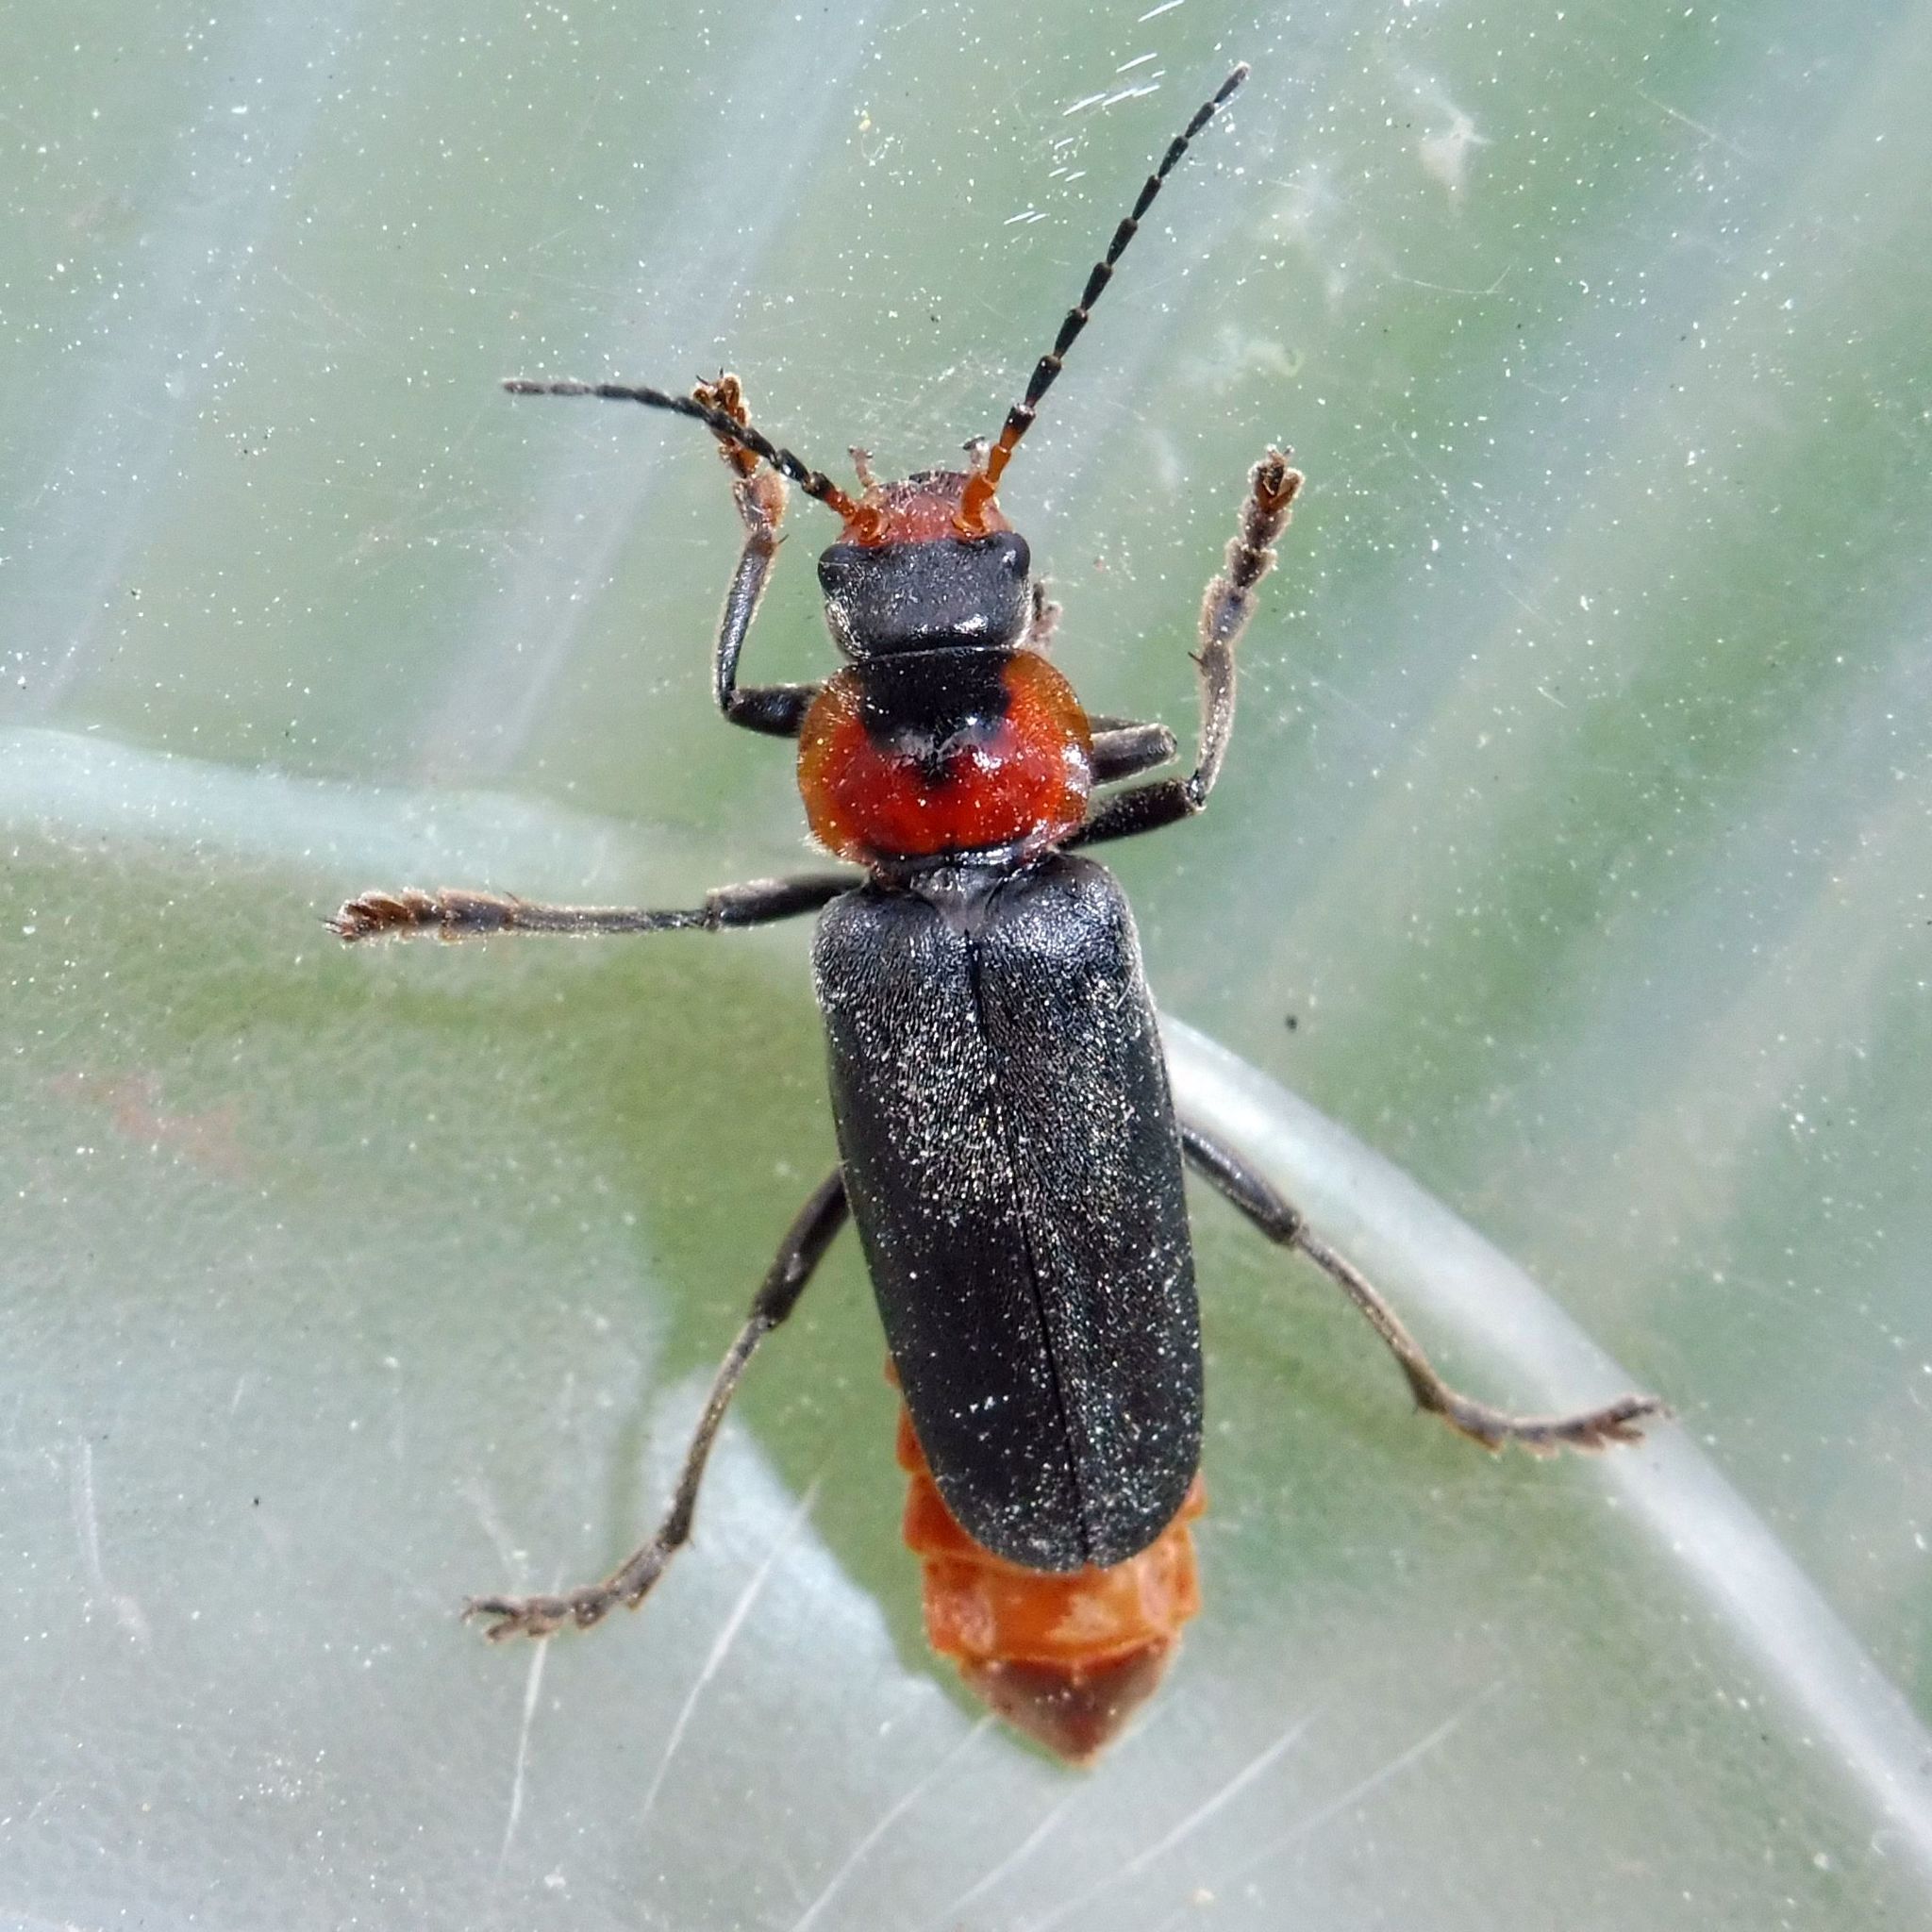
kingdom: Animalia
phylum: Arthropoda
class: Insecta
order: Coleoptera
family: Cantharidae
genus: Cantharis
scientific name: Cantharis fusca
